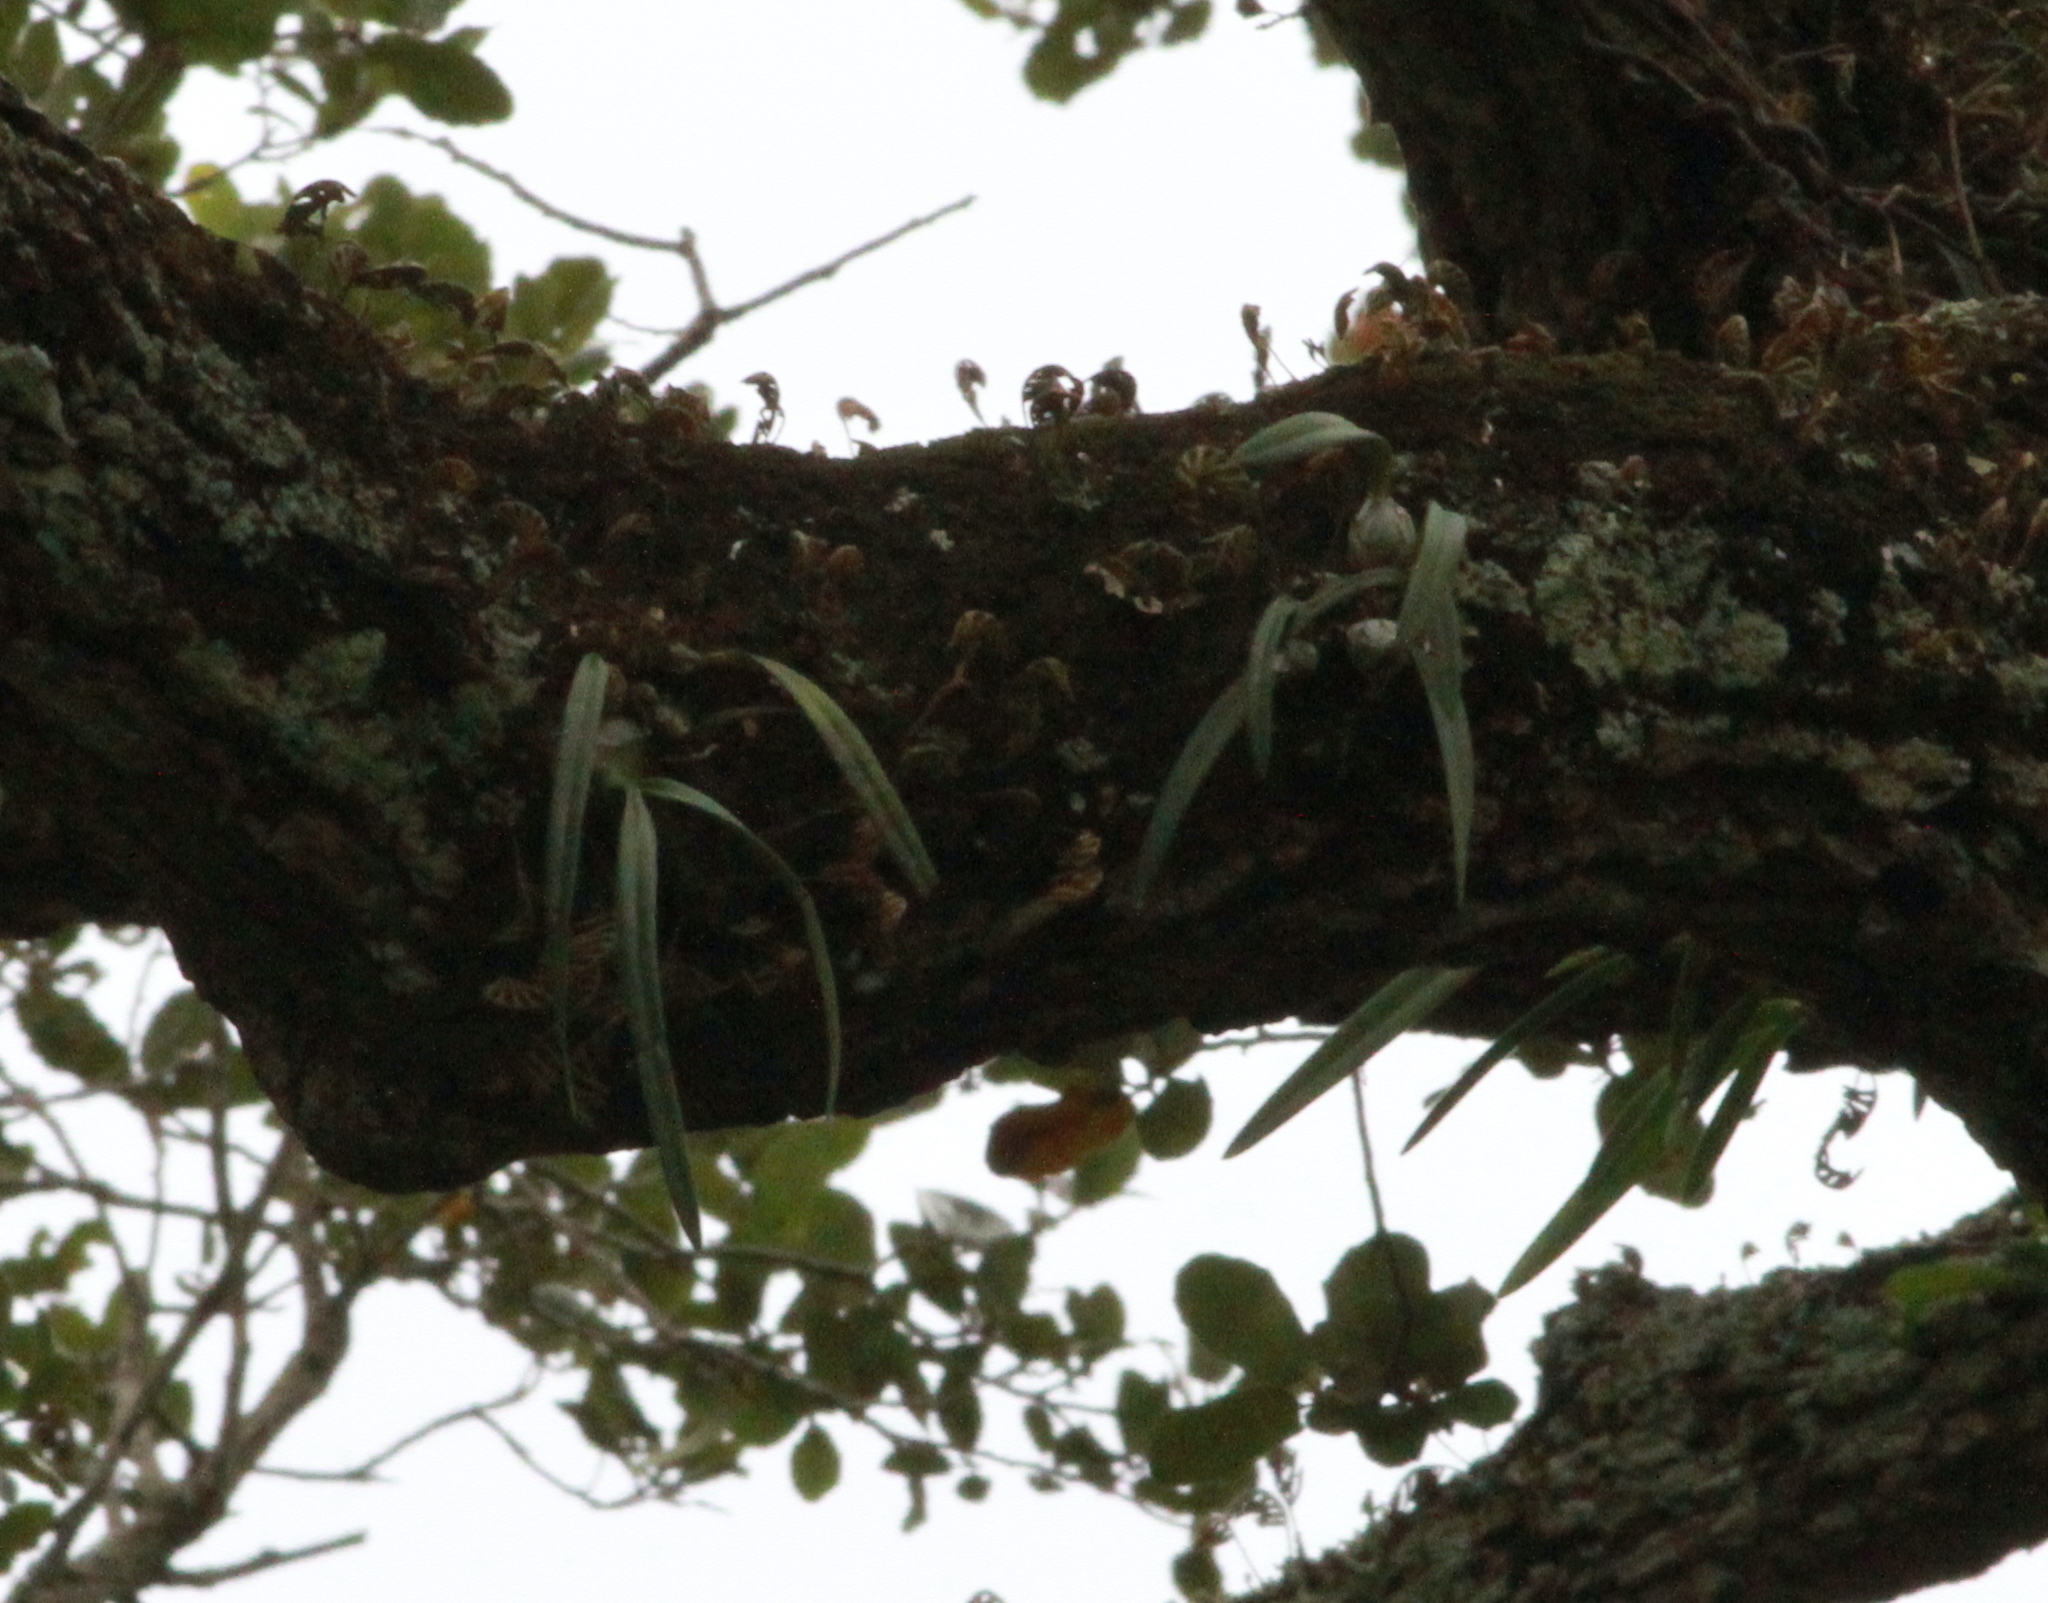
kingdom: Plantae
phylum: Tracheophyta
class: Liliopsida
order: Asparagales
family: Orchidaceae
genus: Encyclia
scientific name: Encyclia tampensis
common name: Florida butterfly orchid
